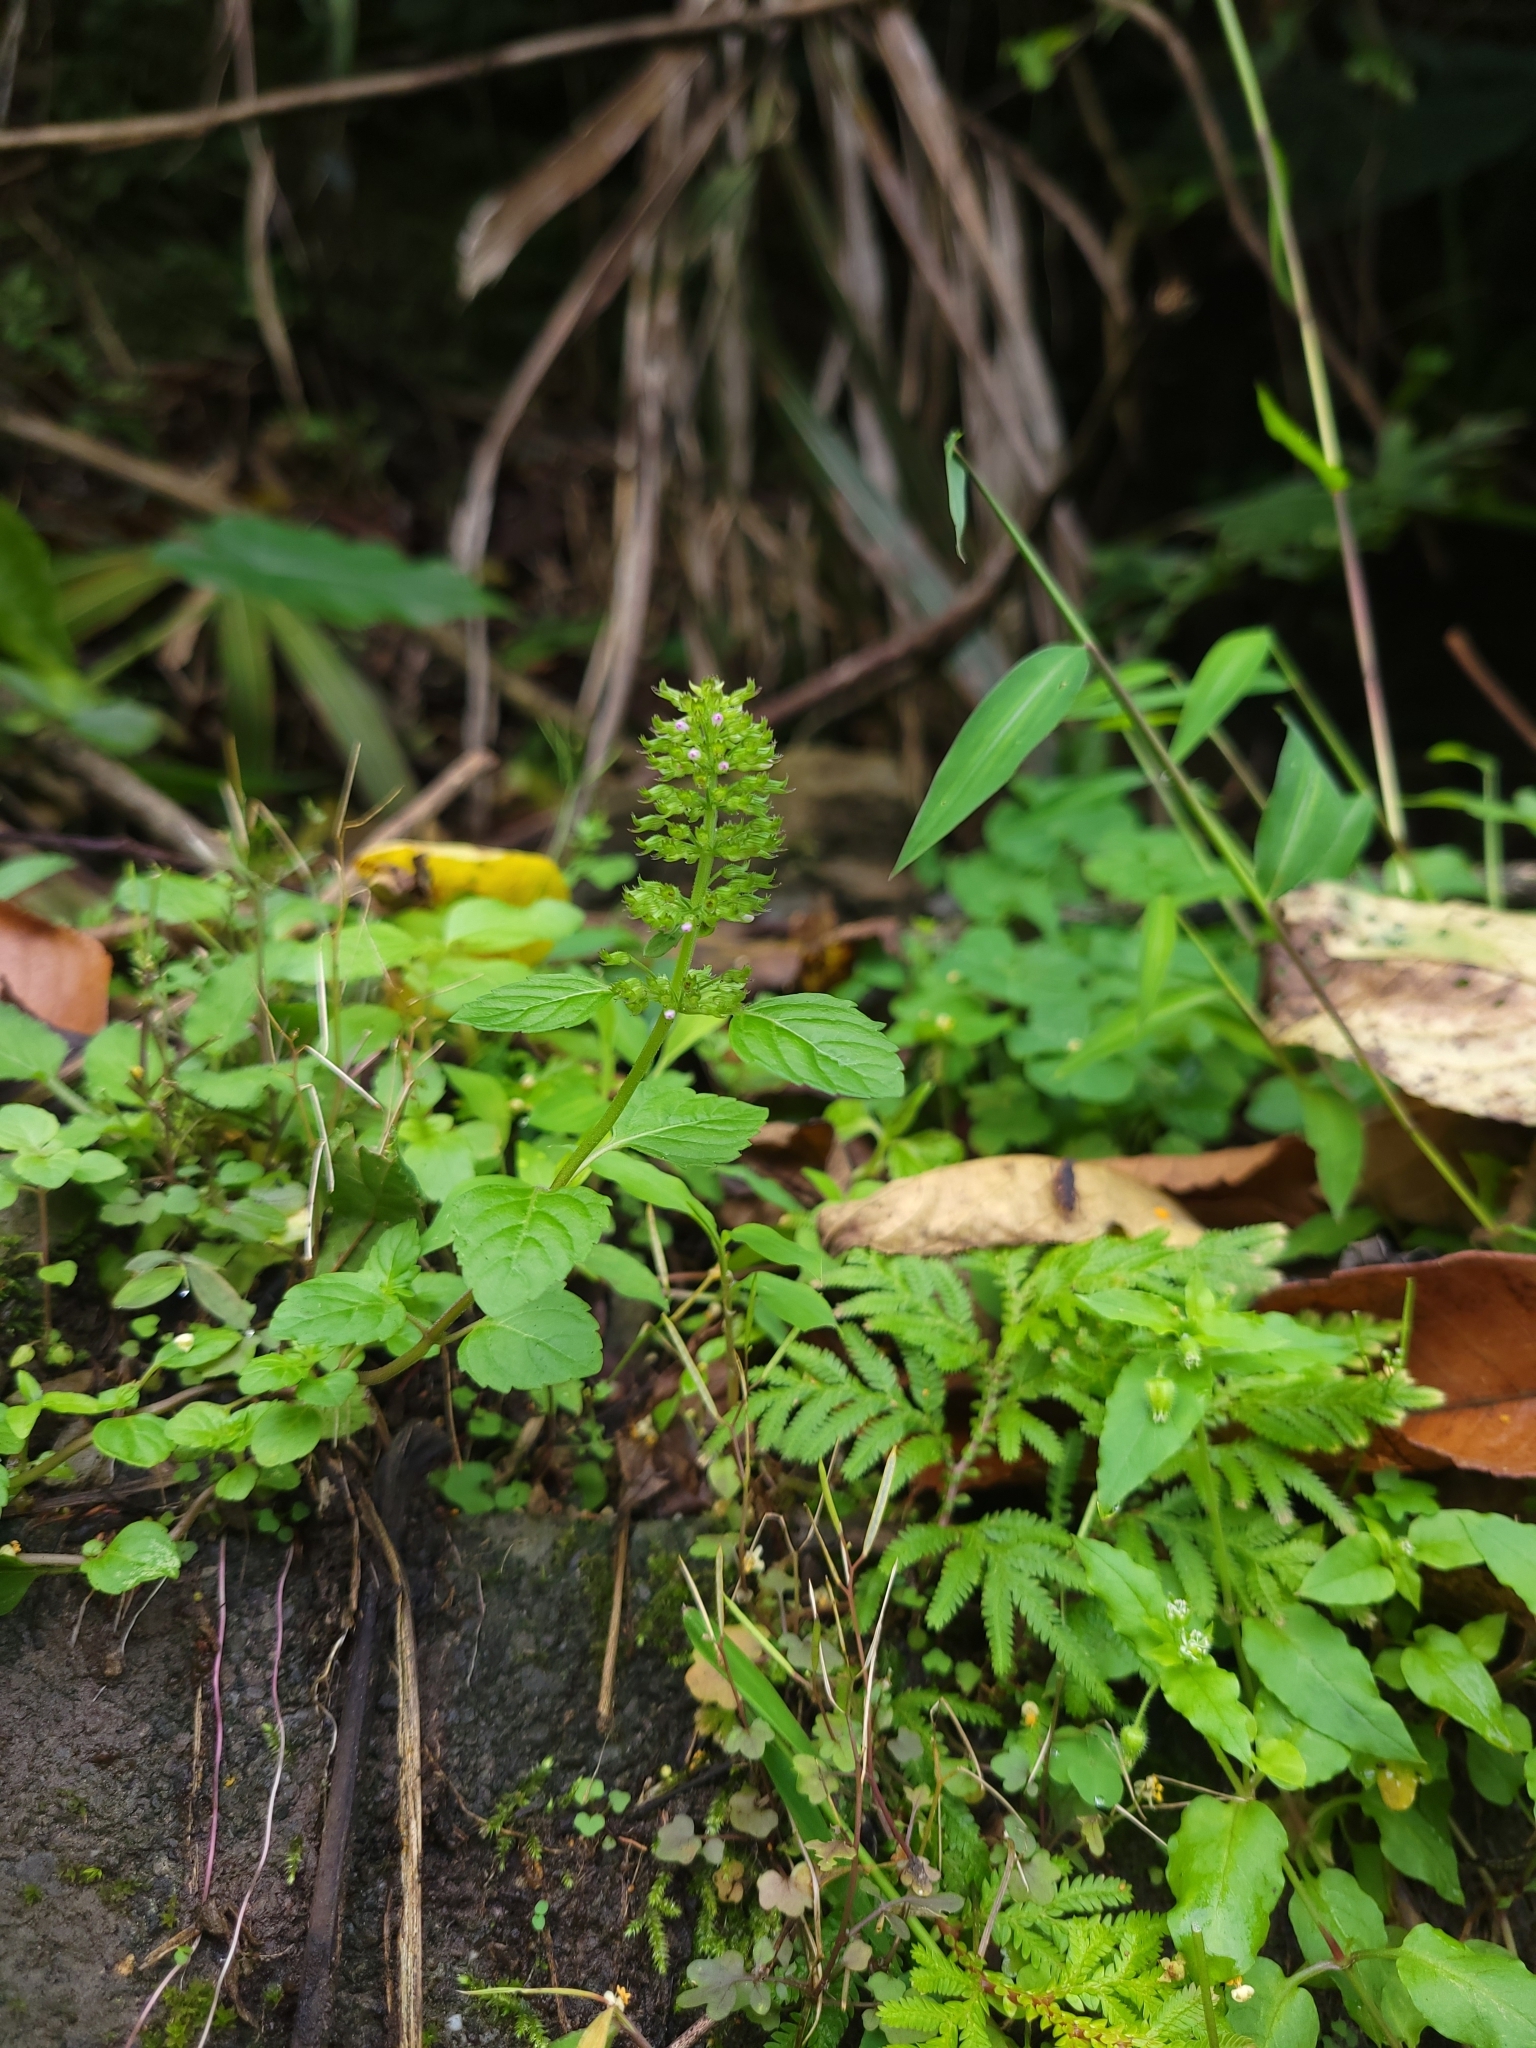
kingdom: Plantae
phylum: Tracheophyta
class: Magnoliopsida
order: Lamiales
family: Lamiaceae
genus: Clinopodium
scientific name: Clinopodium gracile
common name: Slender wild basil
